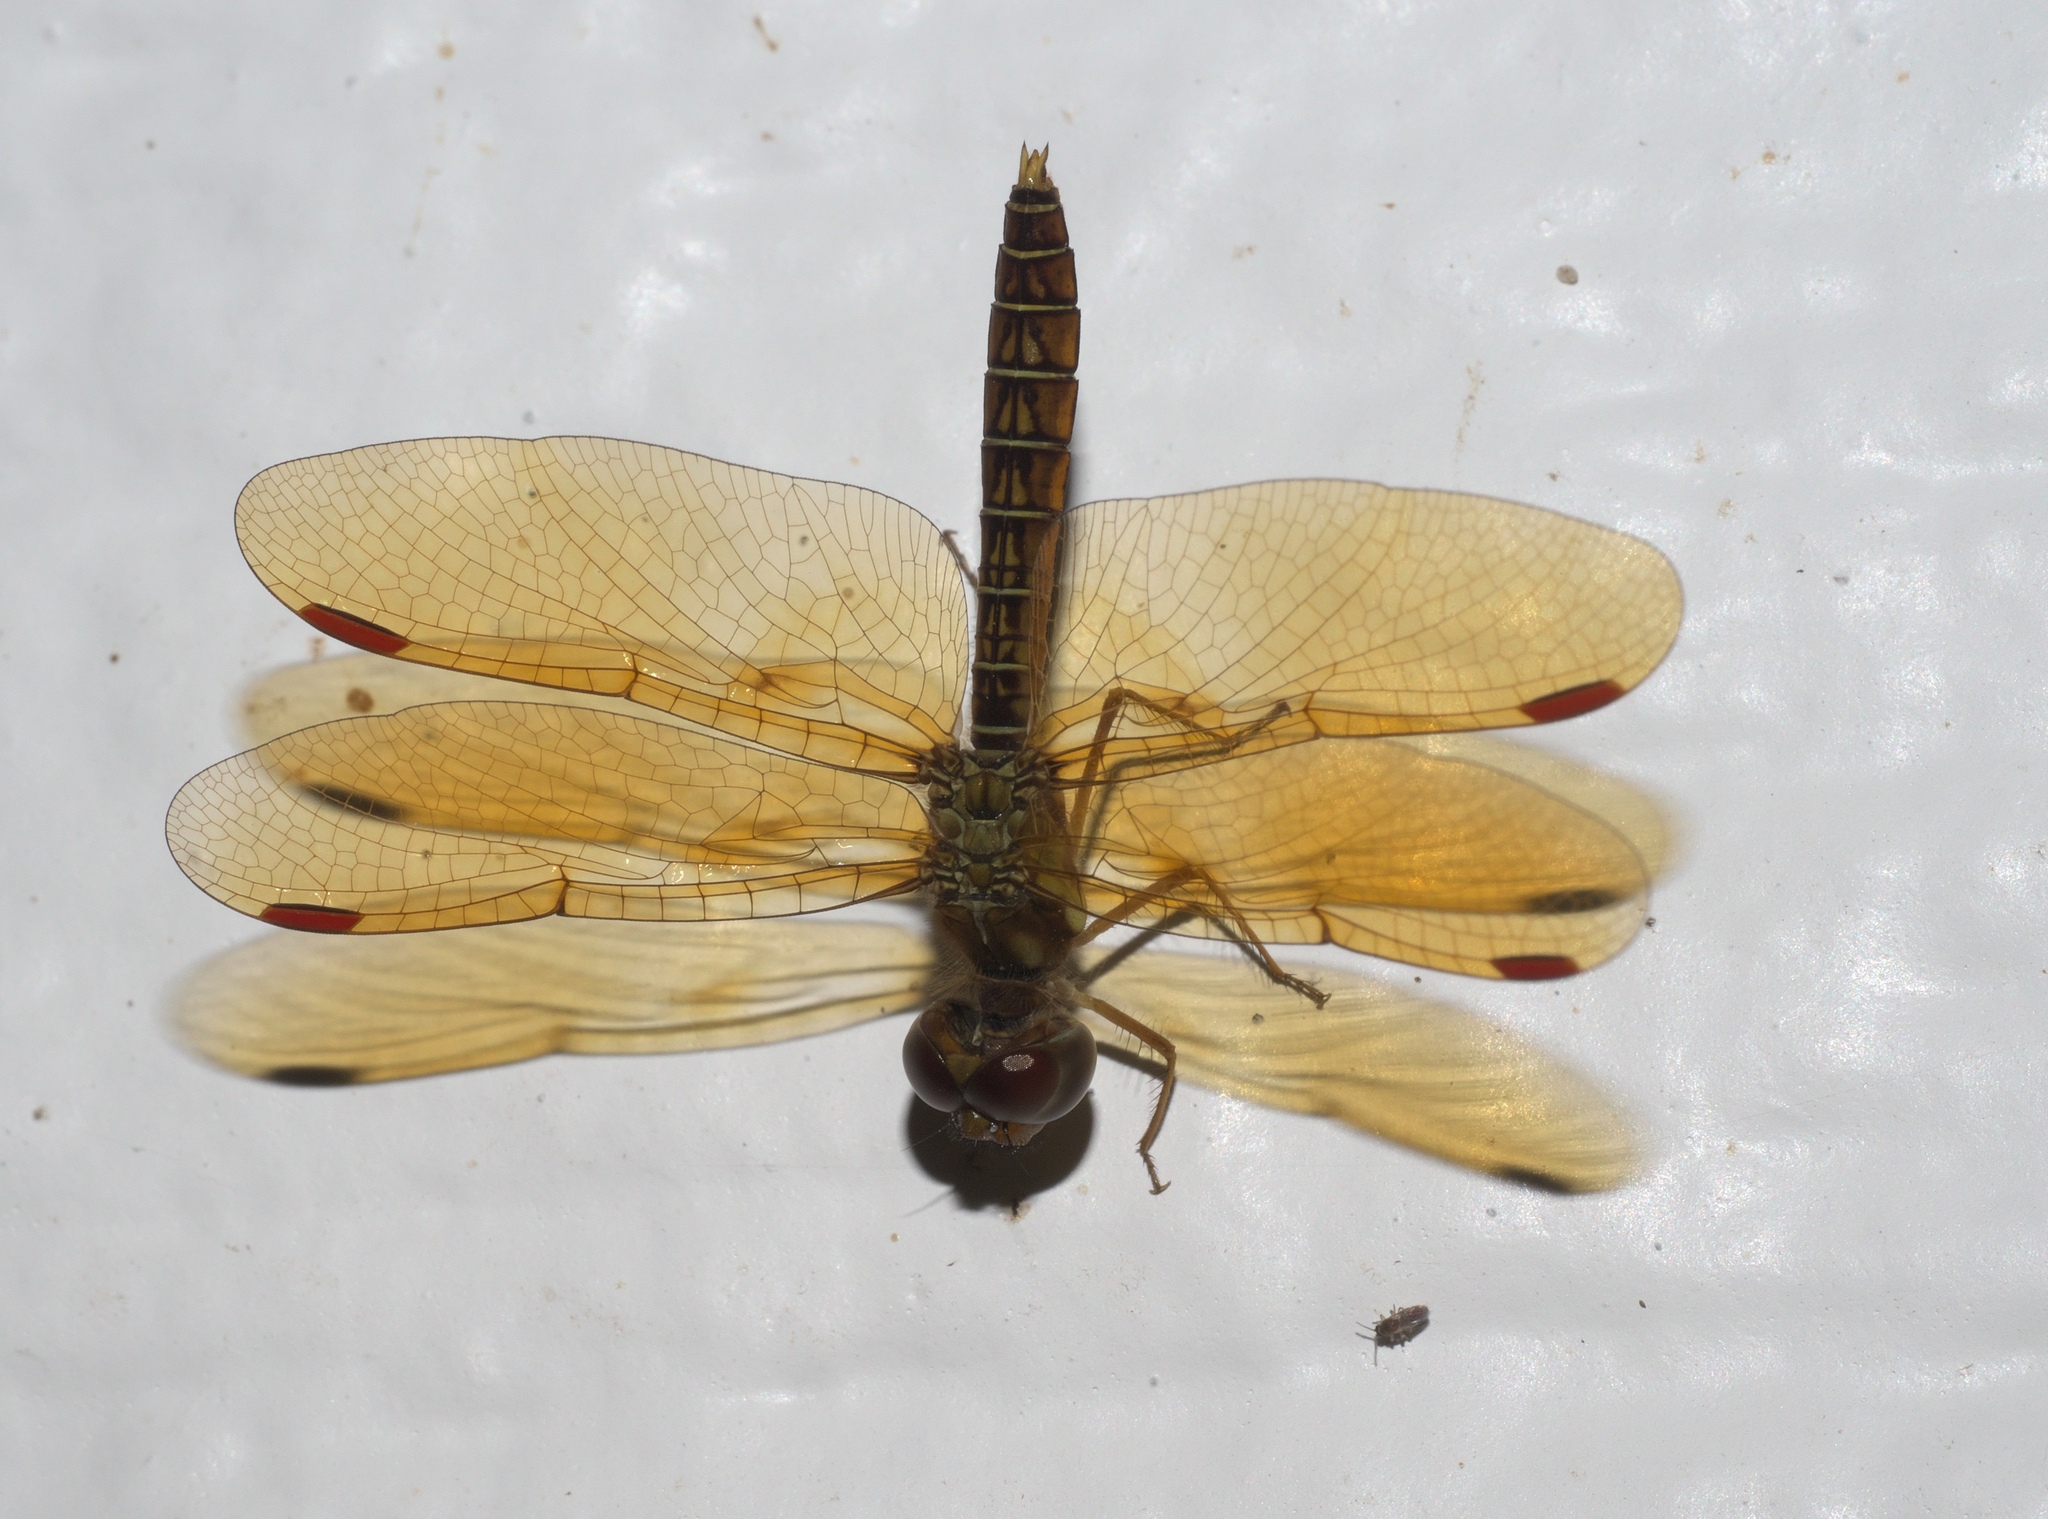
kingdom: Animalia
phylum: Arthropoda
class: Insecta
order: Odonata
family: Libellulidae
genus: Perithemis
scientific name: Perithemis tenera
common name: Eastern amberwing
